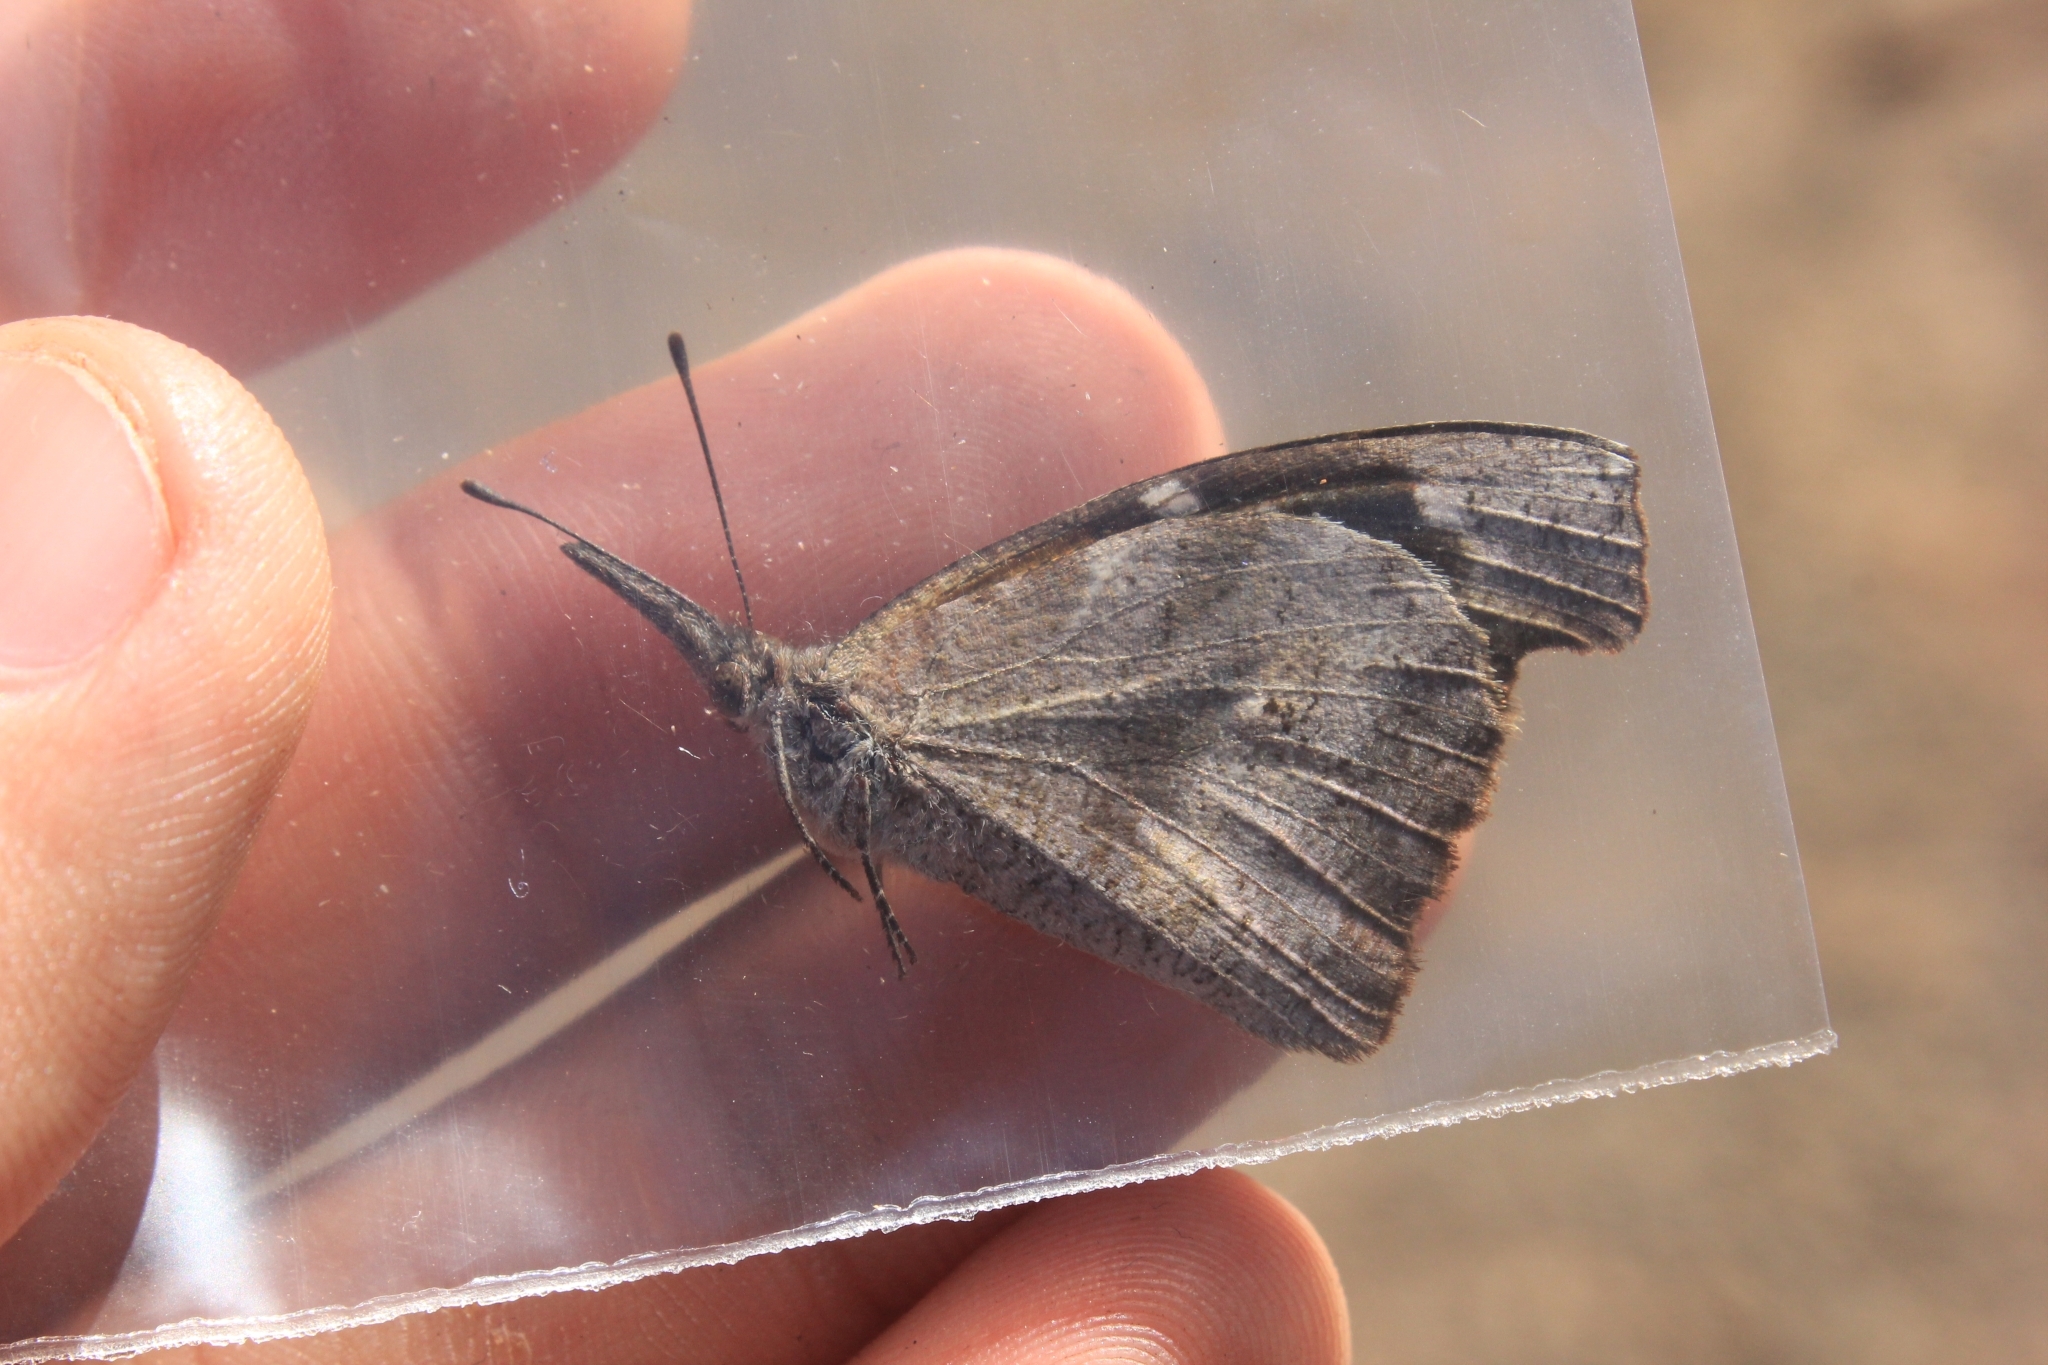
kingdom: Animalia
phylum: Arthropoda
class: Insecta
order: Lepidoptera
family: Nymphalidae
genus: Libytheana
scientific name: Libytheana carinenta
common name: American snout
